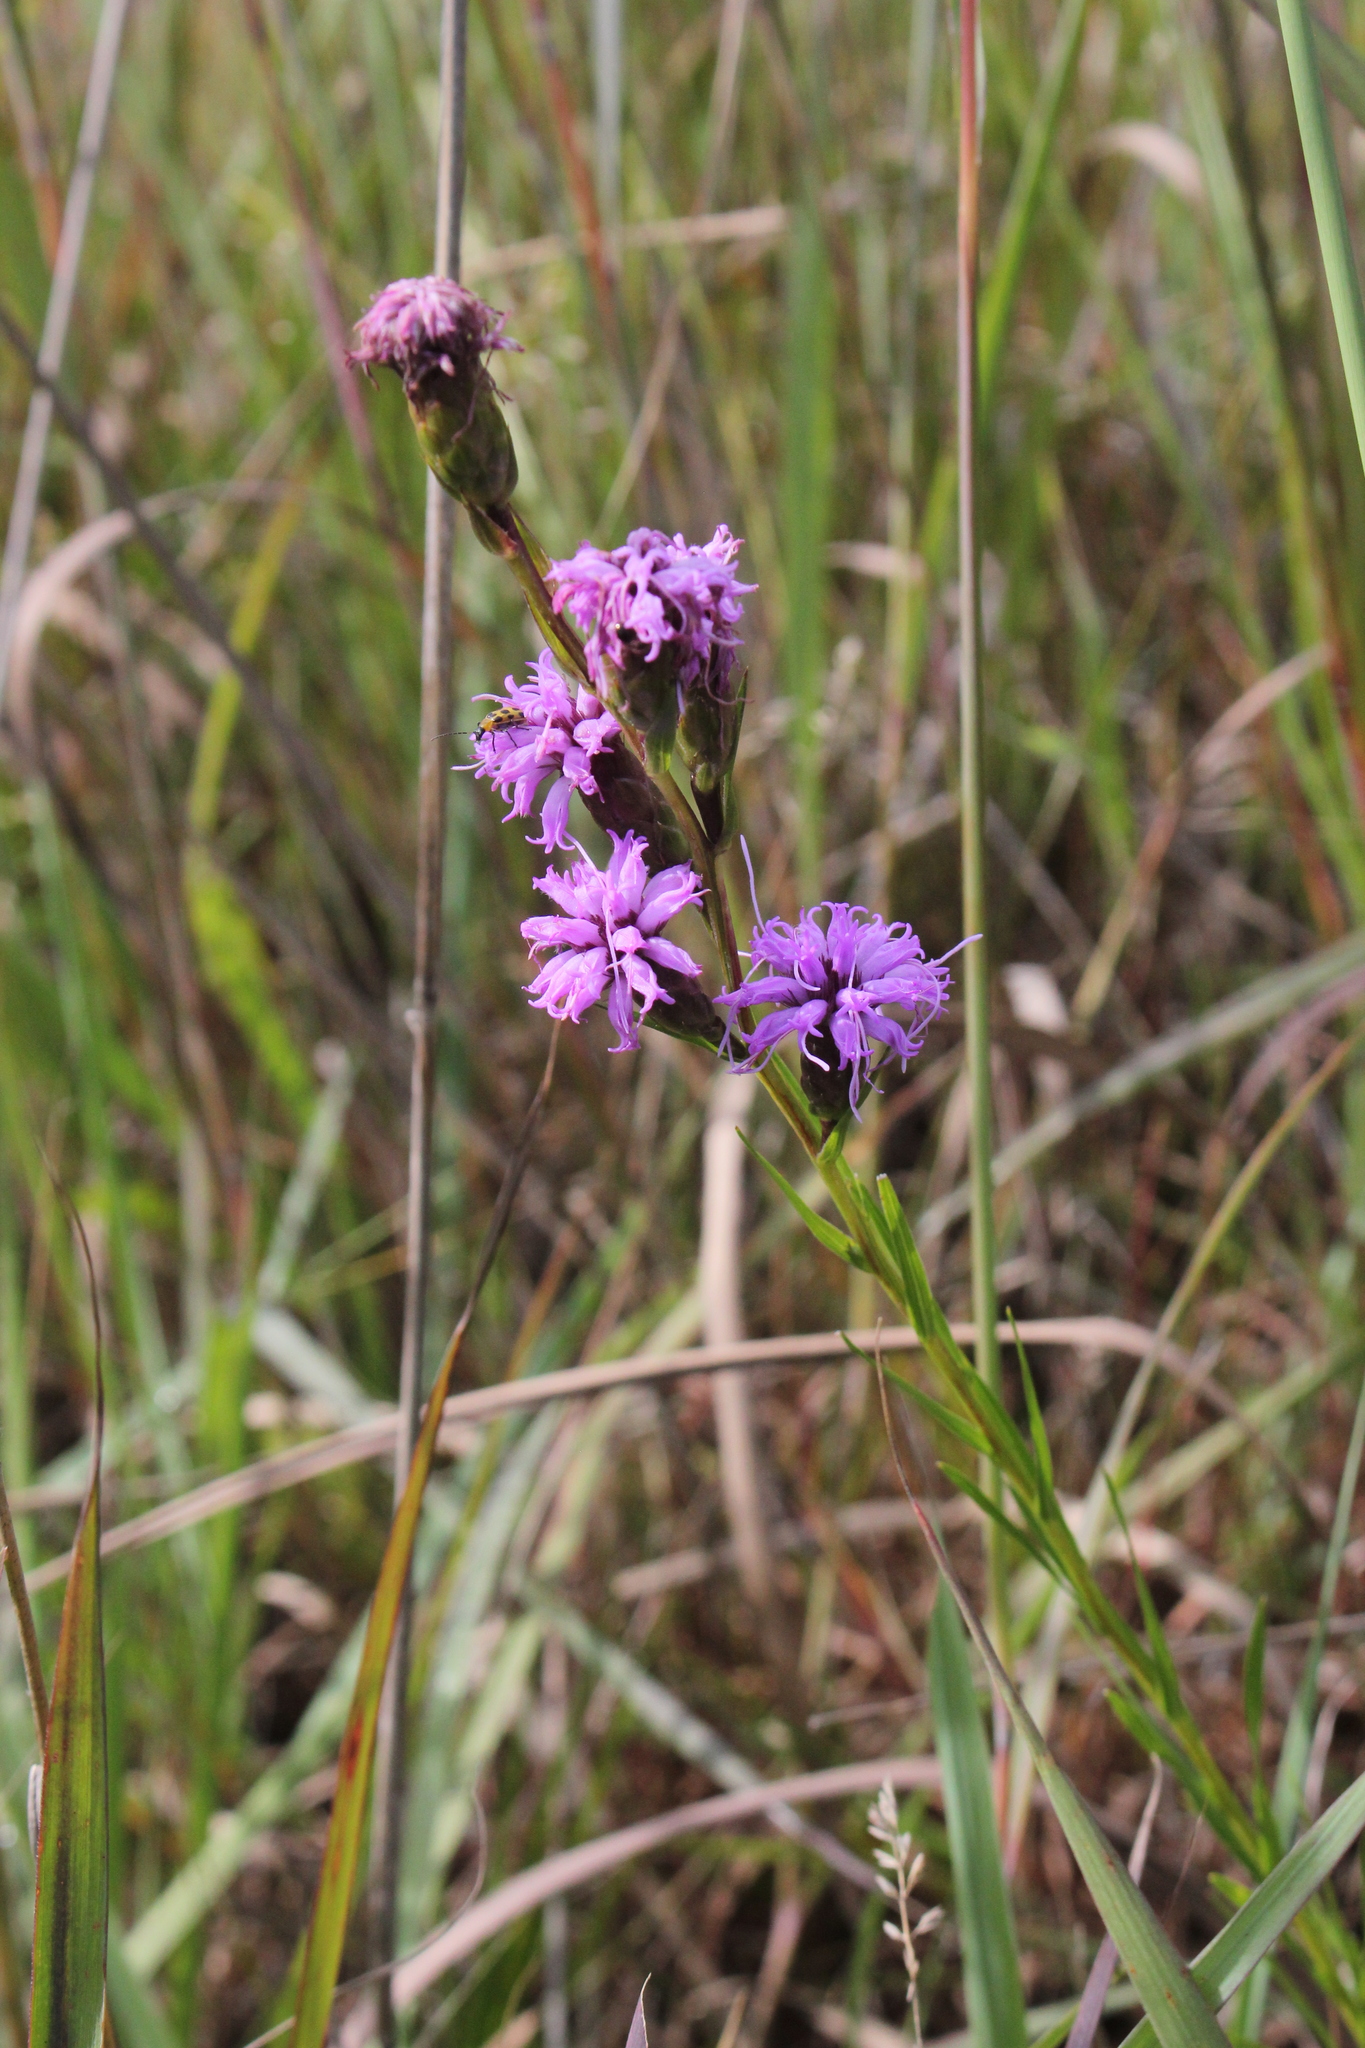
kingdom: Plantae
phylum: Tracheophyta
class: Magnoliopsida
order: Asterales
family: Asteraceae
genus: Liatris
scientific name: Liatris cylindracea
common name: Few-head blazingstar
